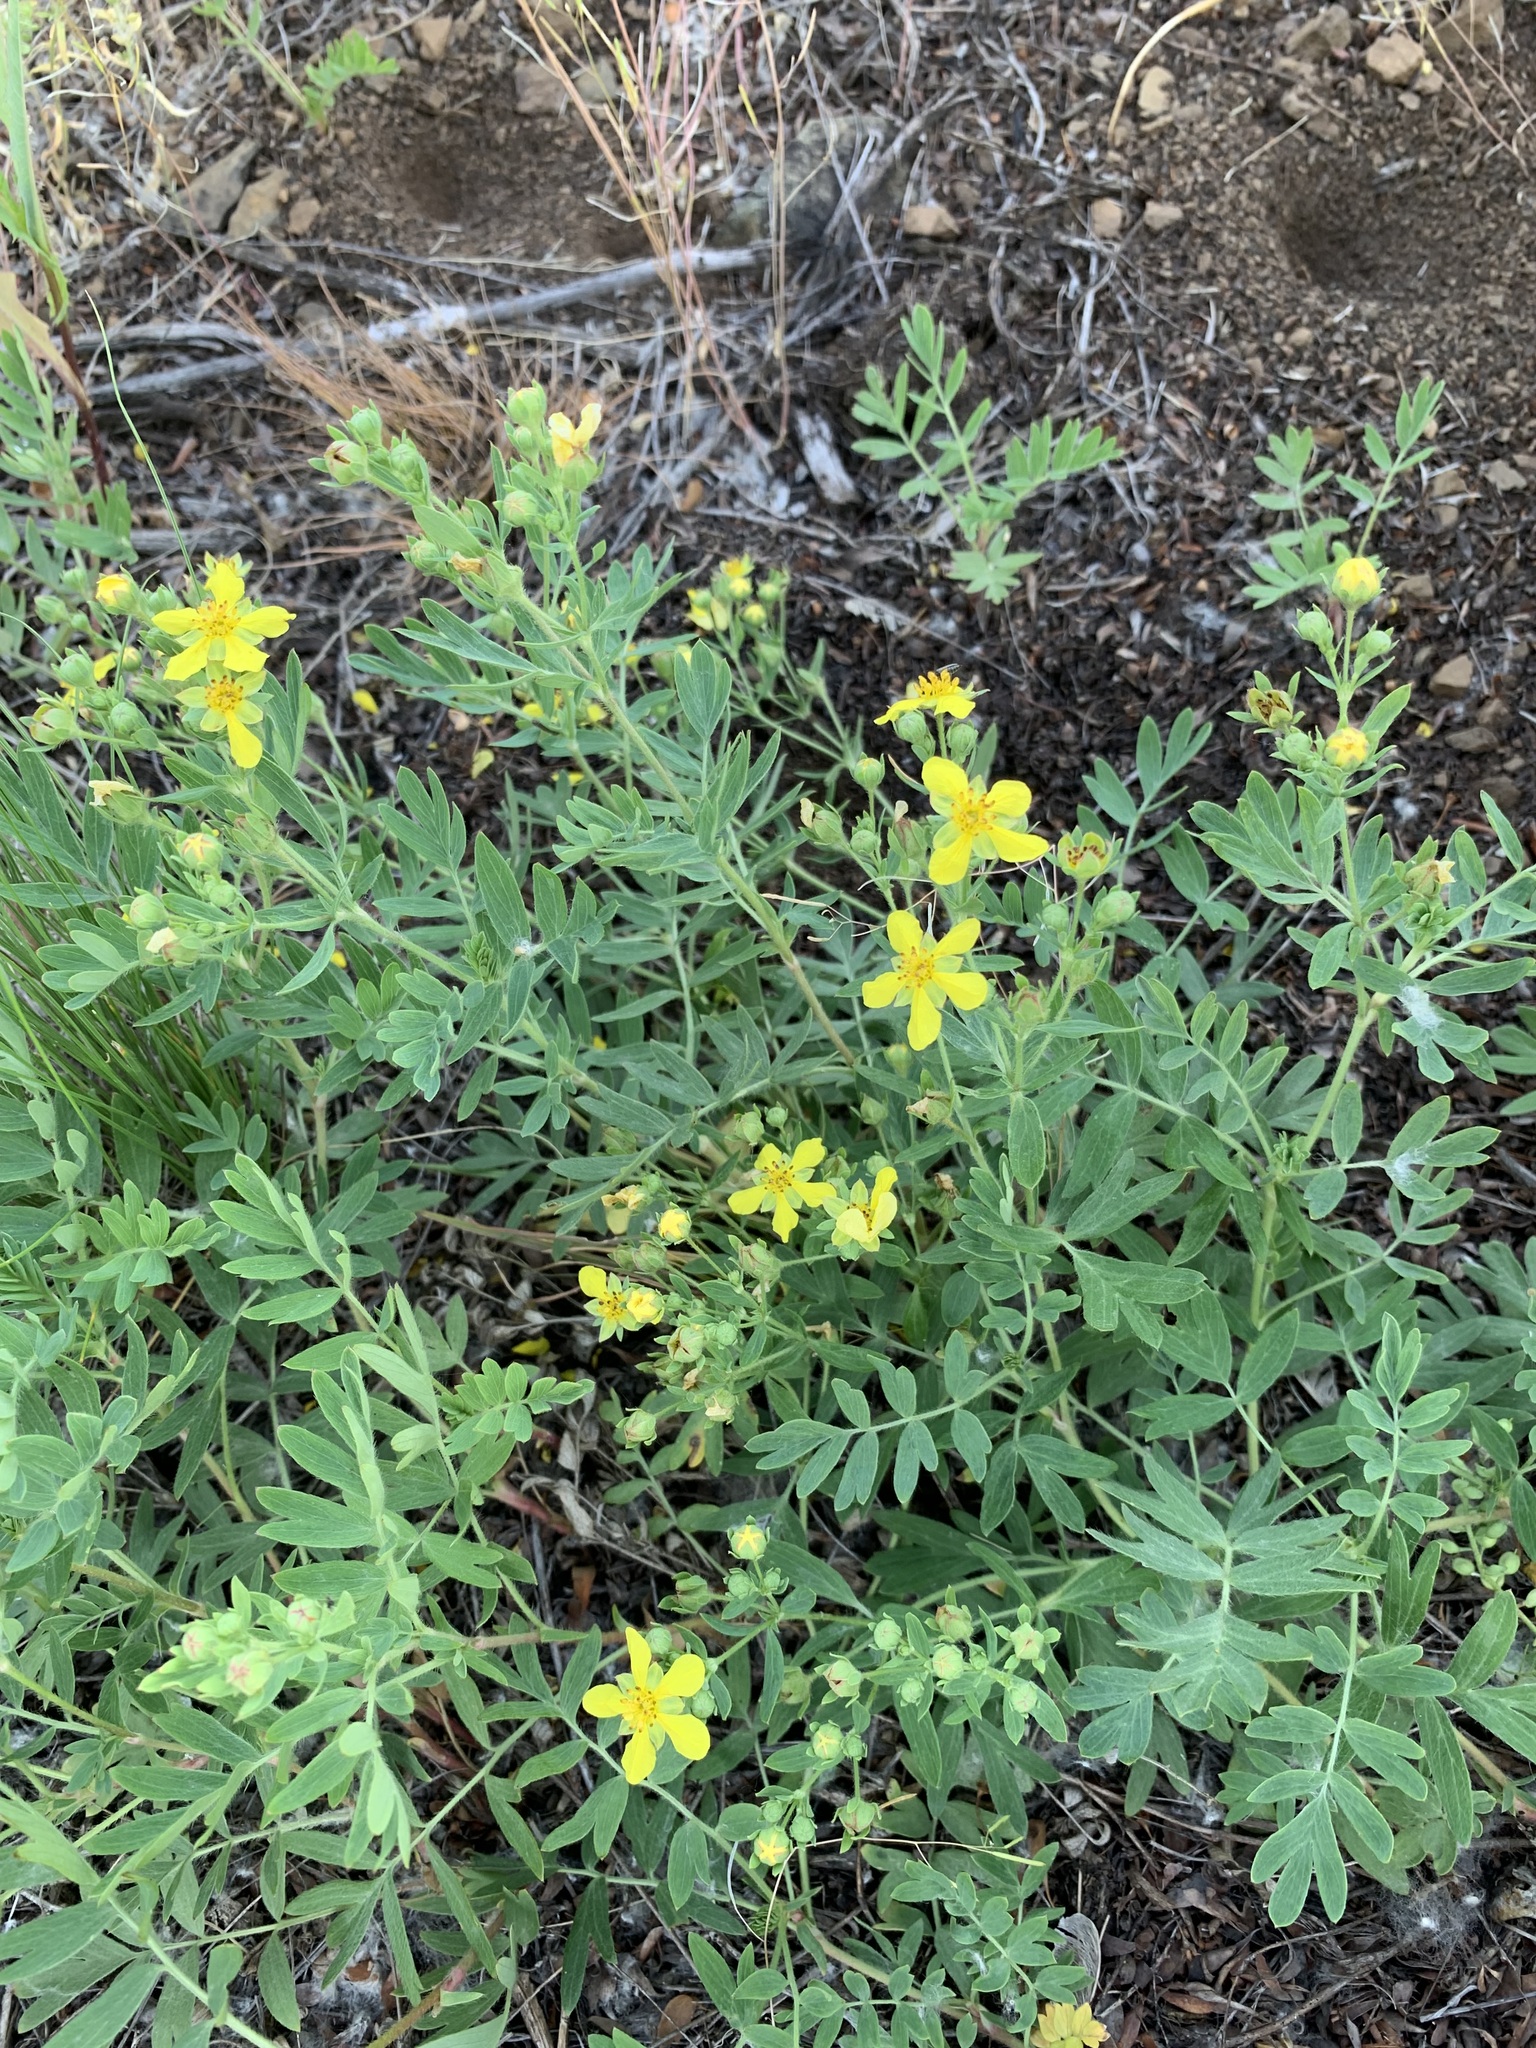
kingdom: Plantae
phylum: Tracheophyta
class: Magnoliopsida
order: Rosales
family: Rosaceae
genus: Sibbaldianthe
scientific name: Sibbaldianthe bifurca
